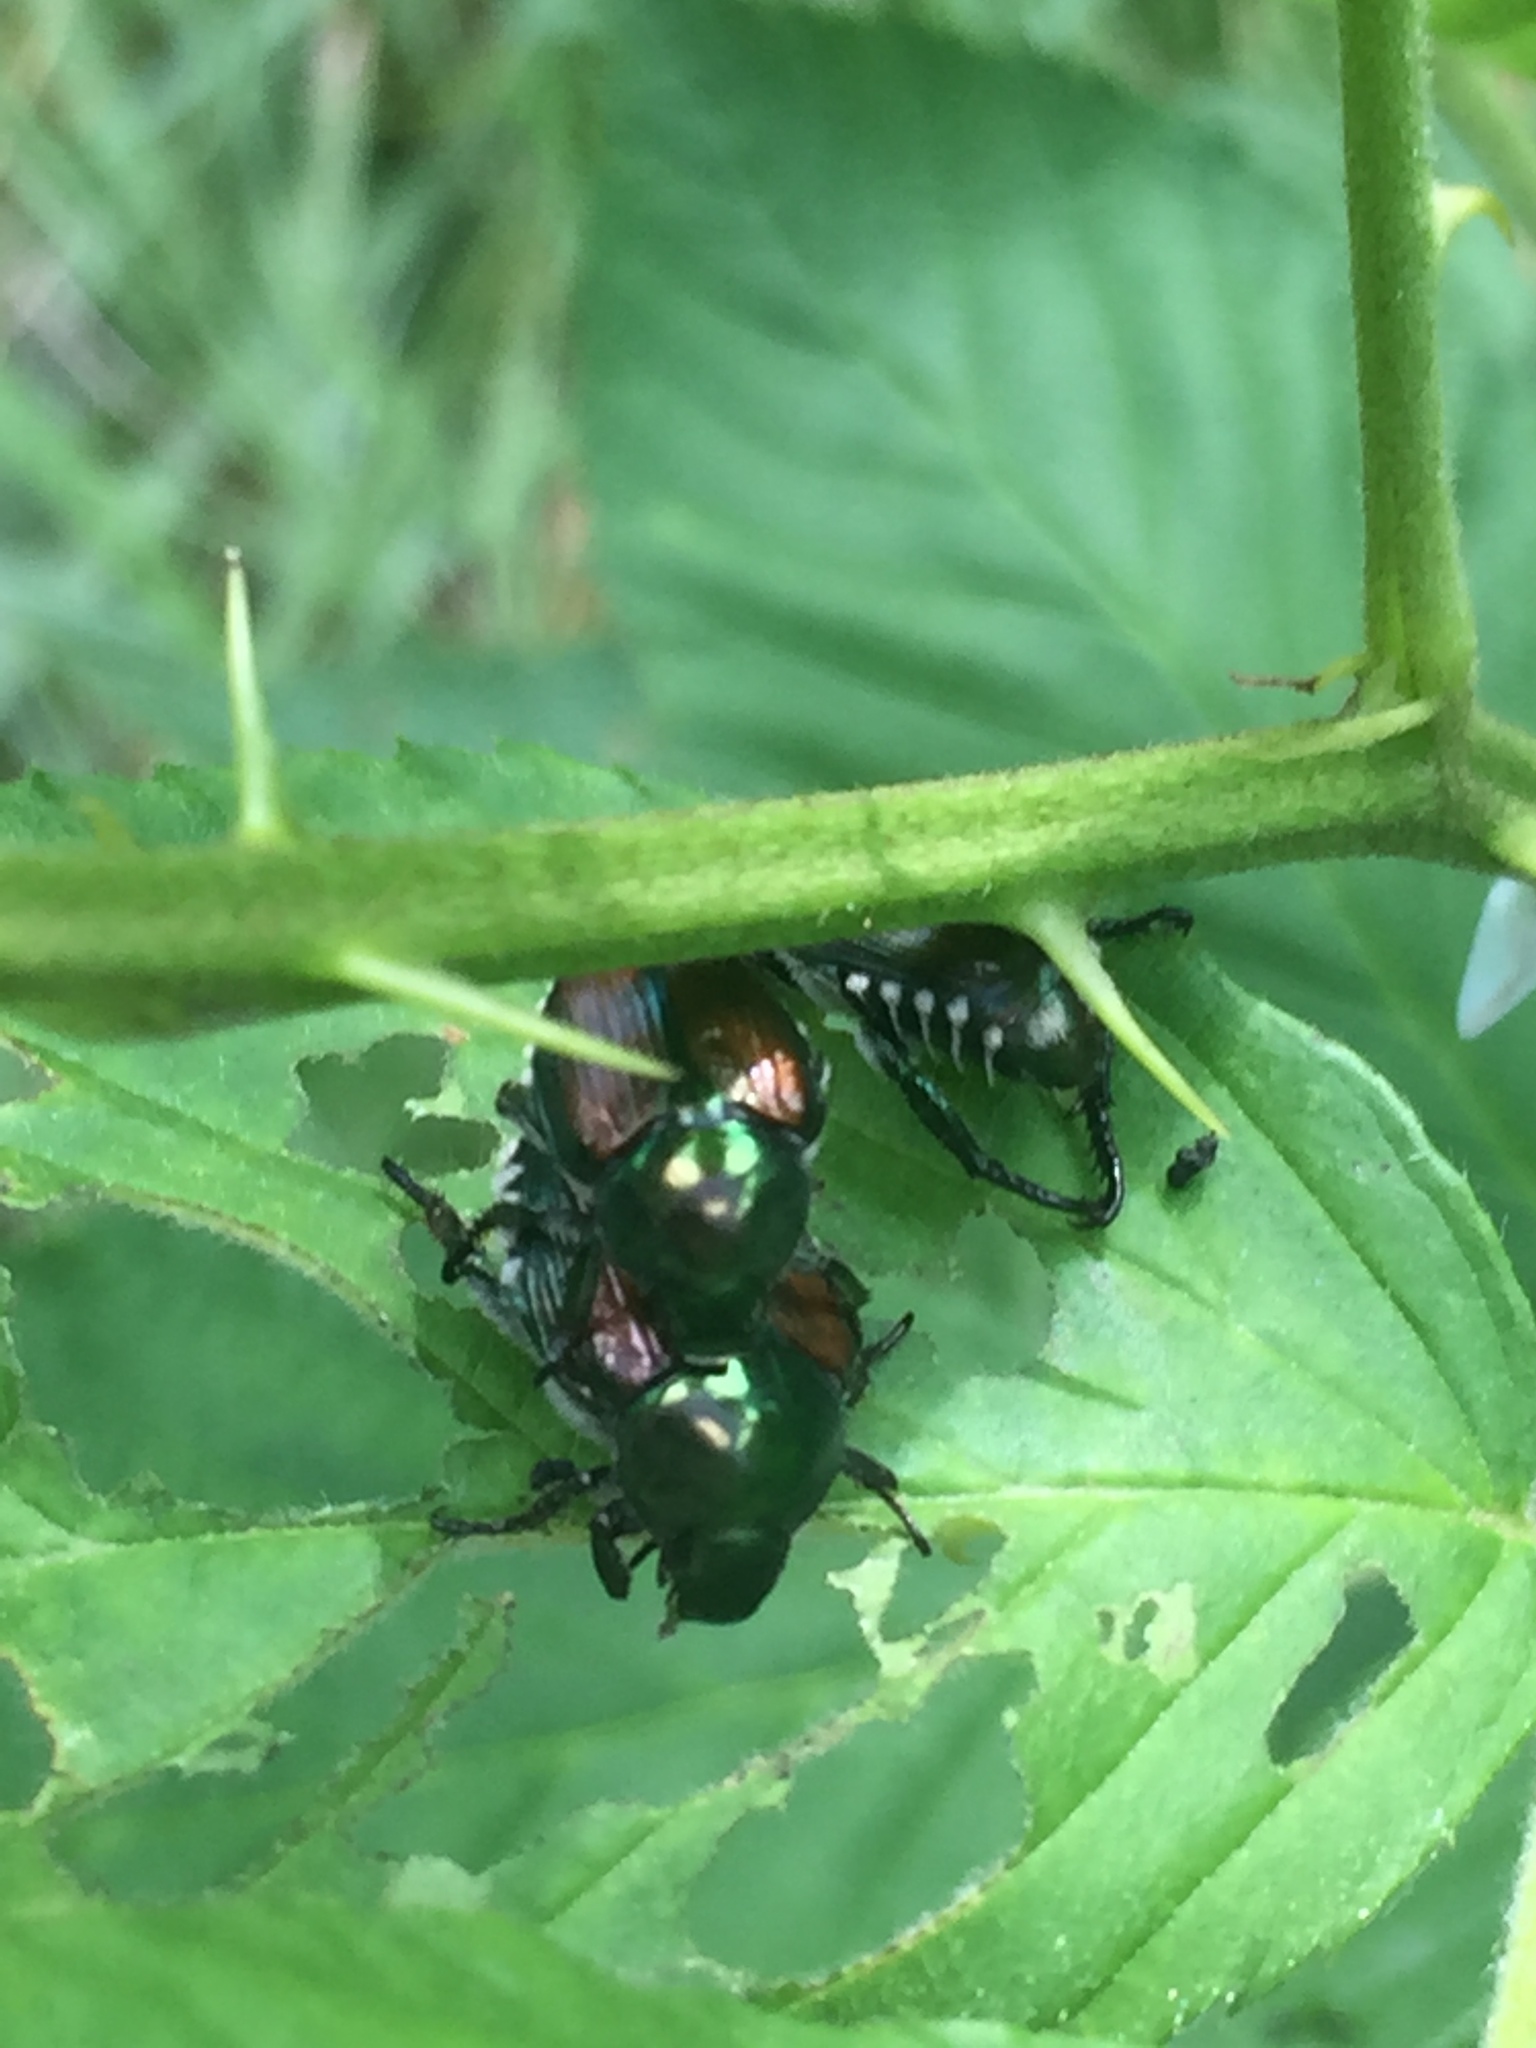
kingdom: Animalia
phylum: Arthropoda
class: Insecta
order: Coleoptera
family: Scarabaeidae
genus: Popillia
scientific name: Popillia japonica
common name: Japanese beetle
